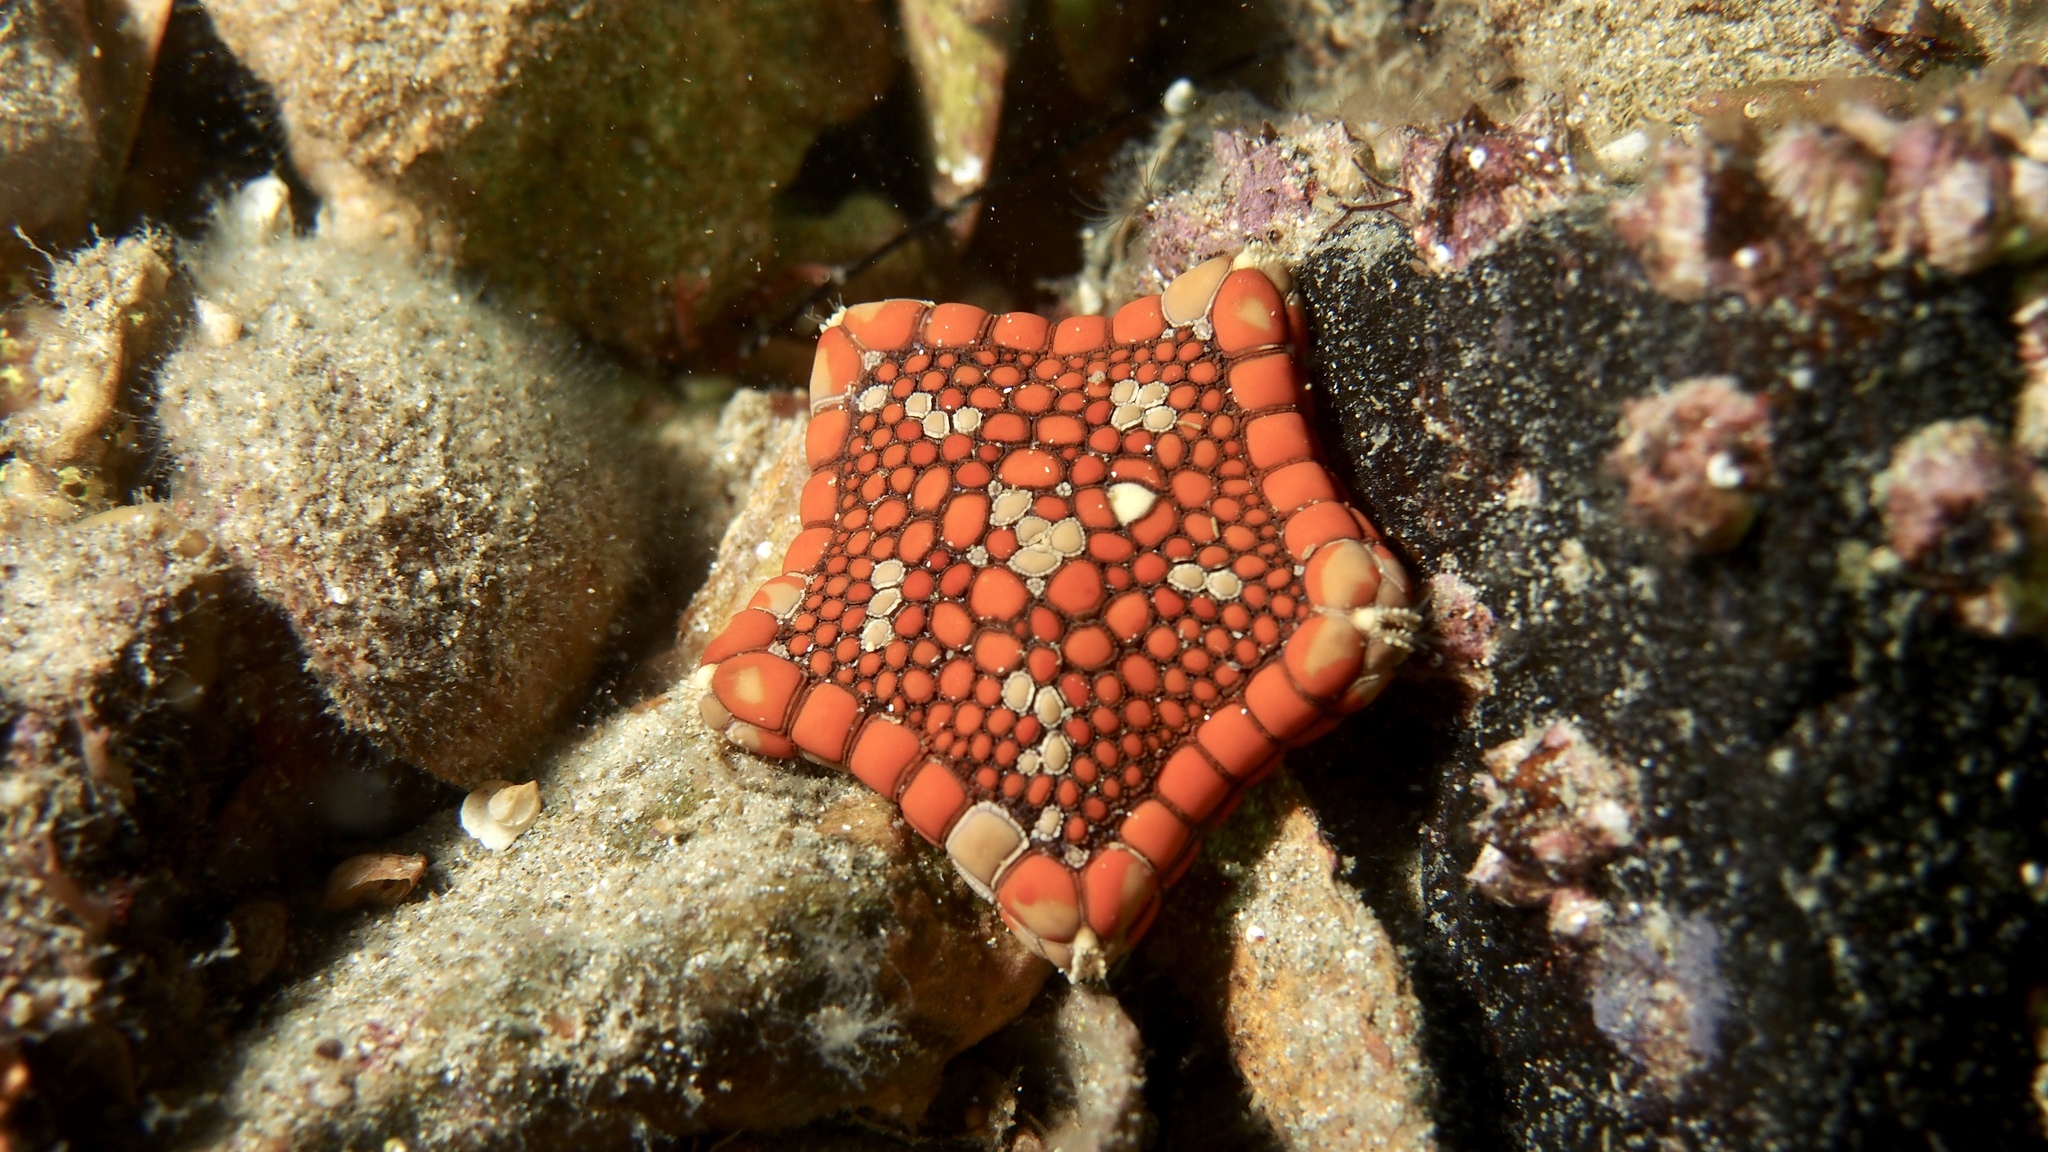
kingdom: Animalia
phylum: Echinodermata
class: Asteroidea
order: Valvatida
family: Goniasteridae
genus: Tosia
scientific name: Tosia neossia
